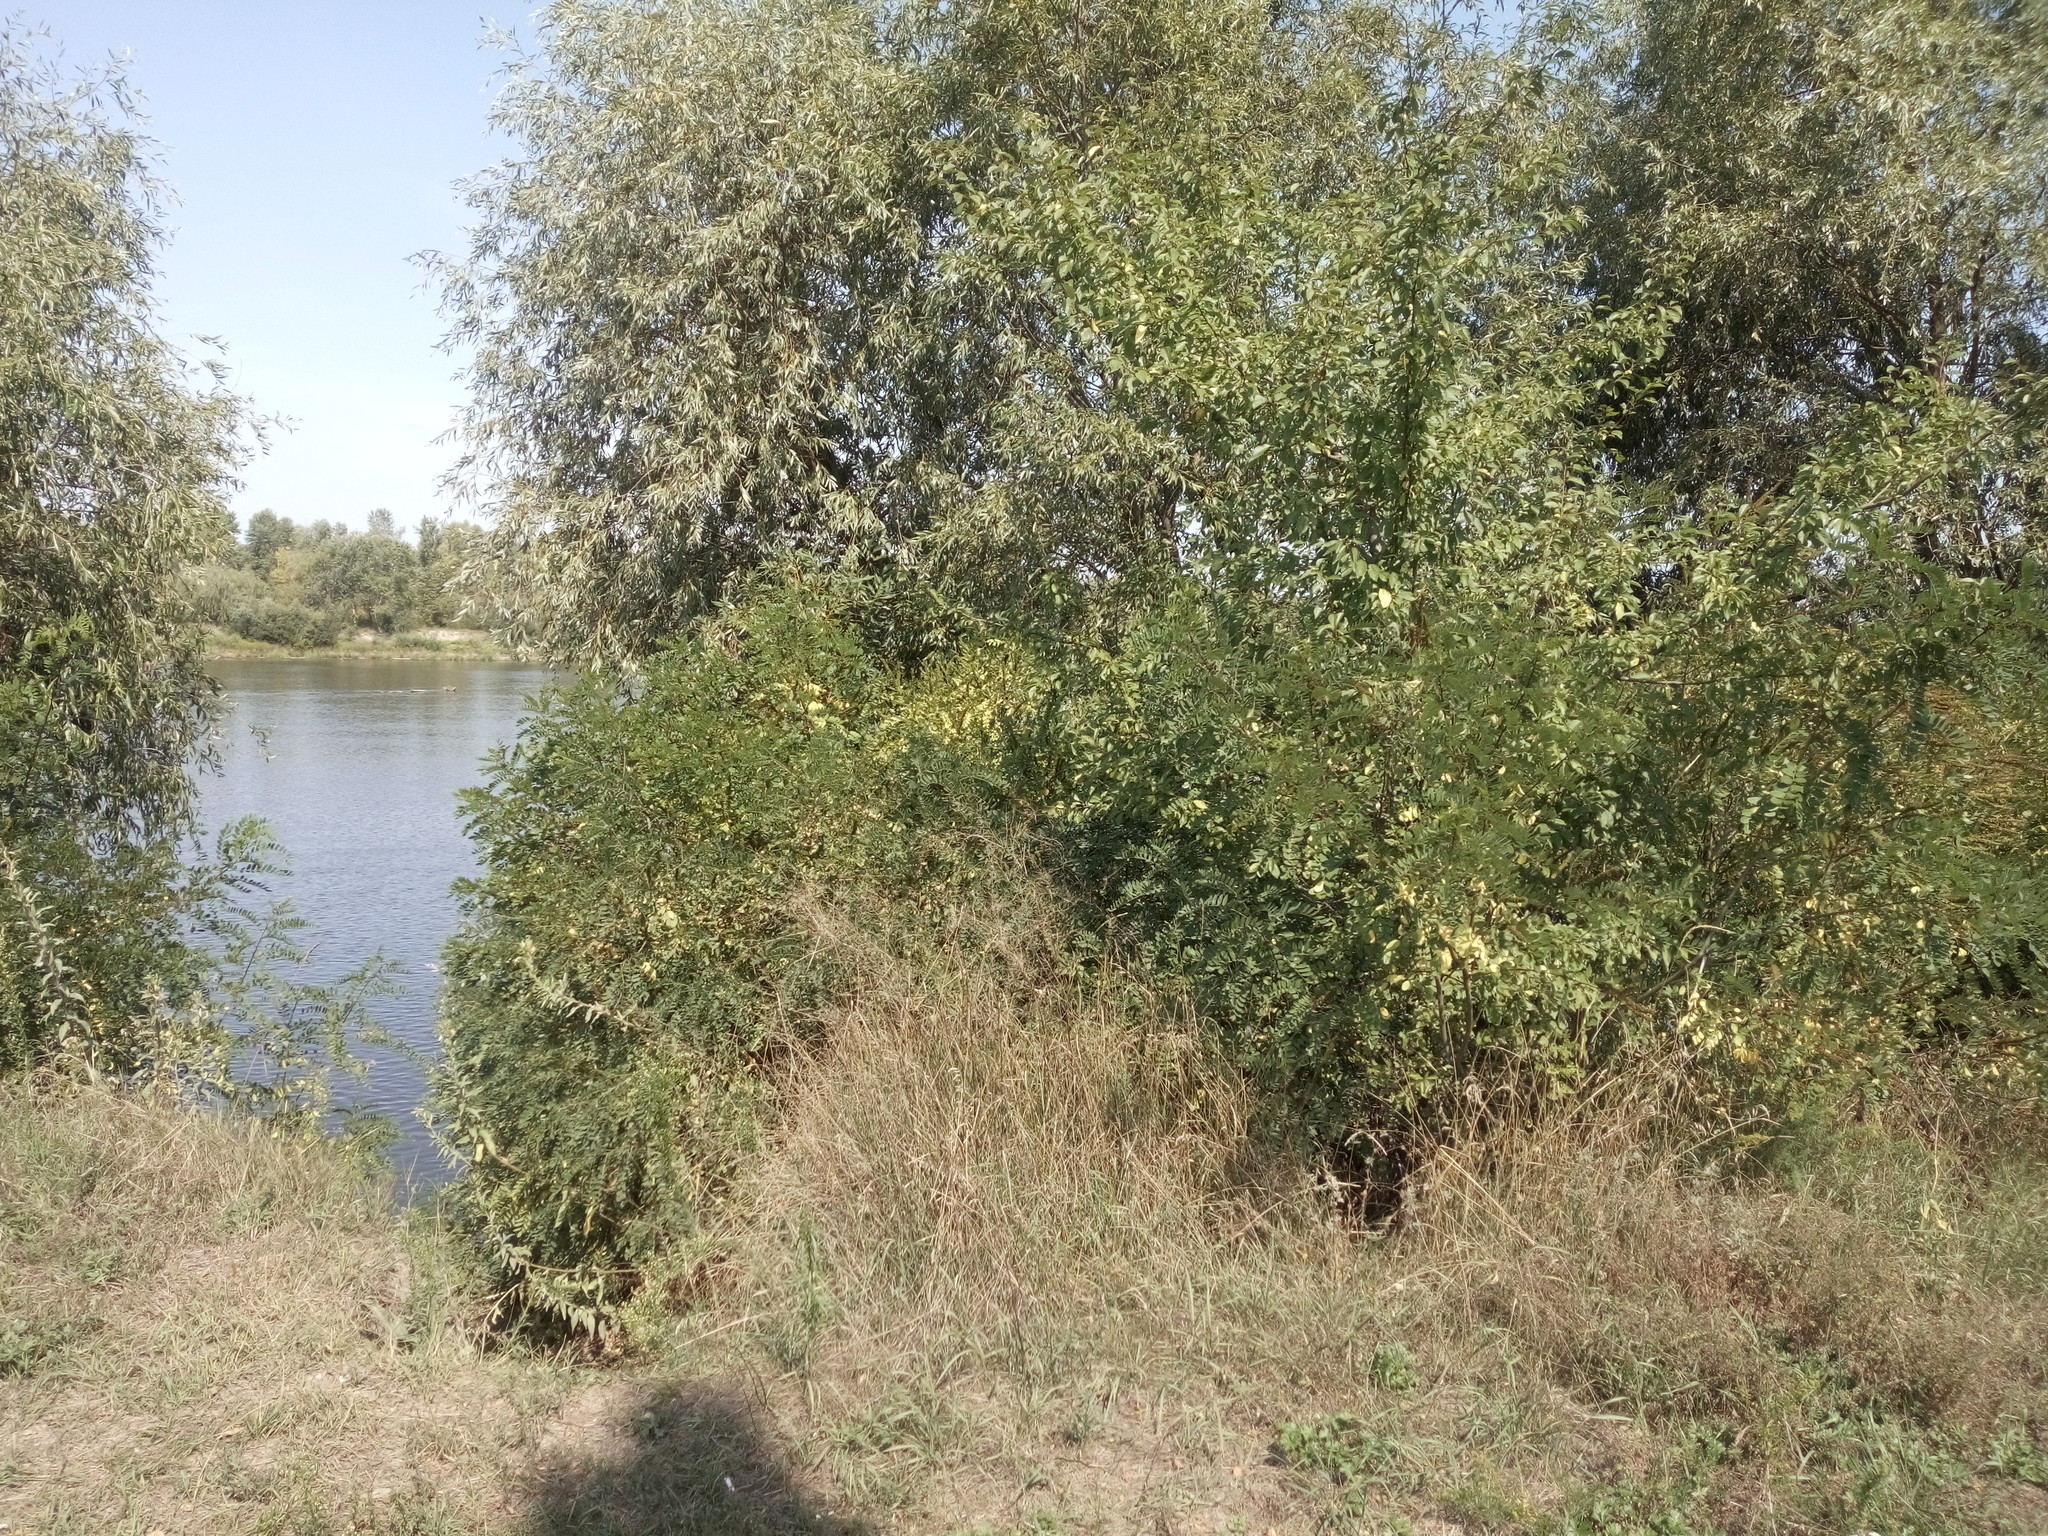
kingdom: Plantae
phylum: Tracheophyta
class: Magnoliopsida
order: Fabales
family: Fabaceae
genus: Amorpha
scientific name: Amorpha fruticosa
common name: False indigo
